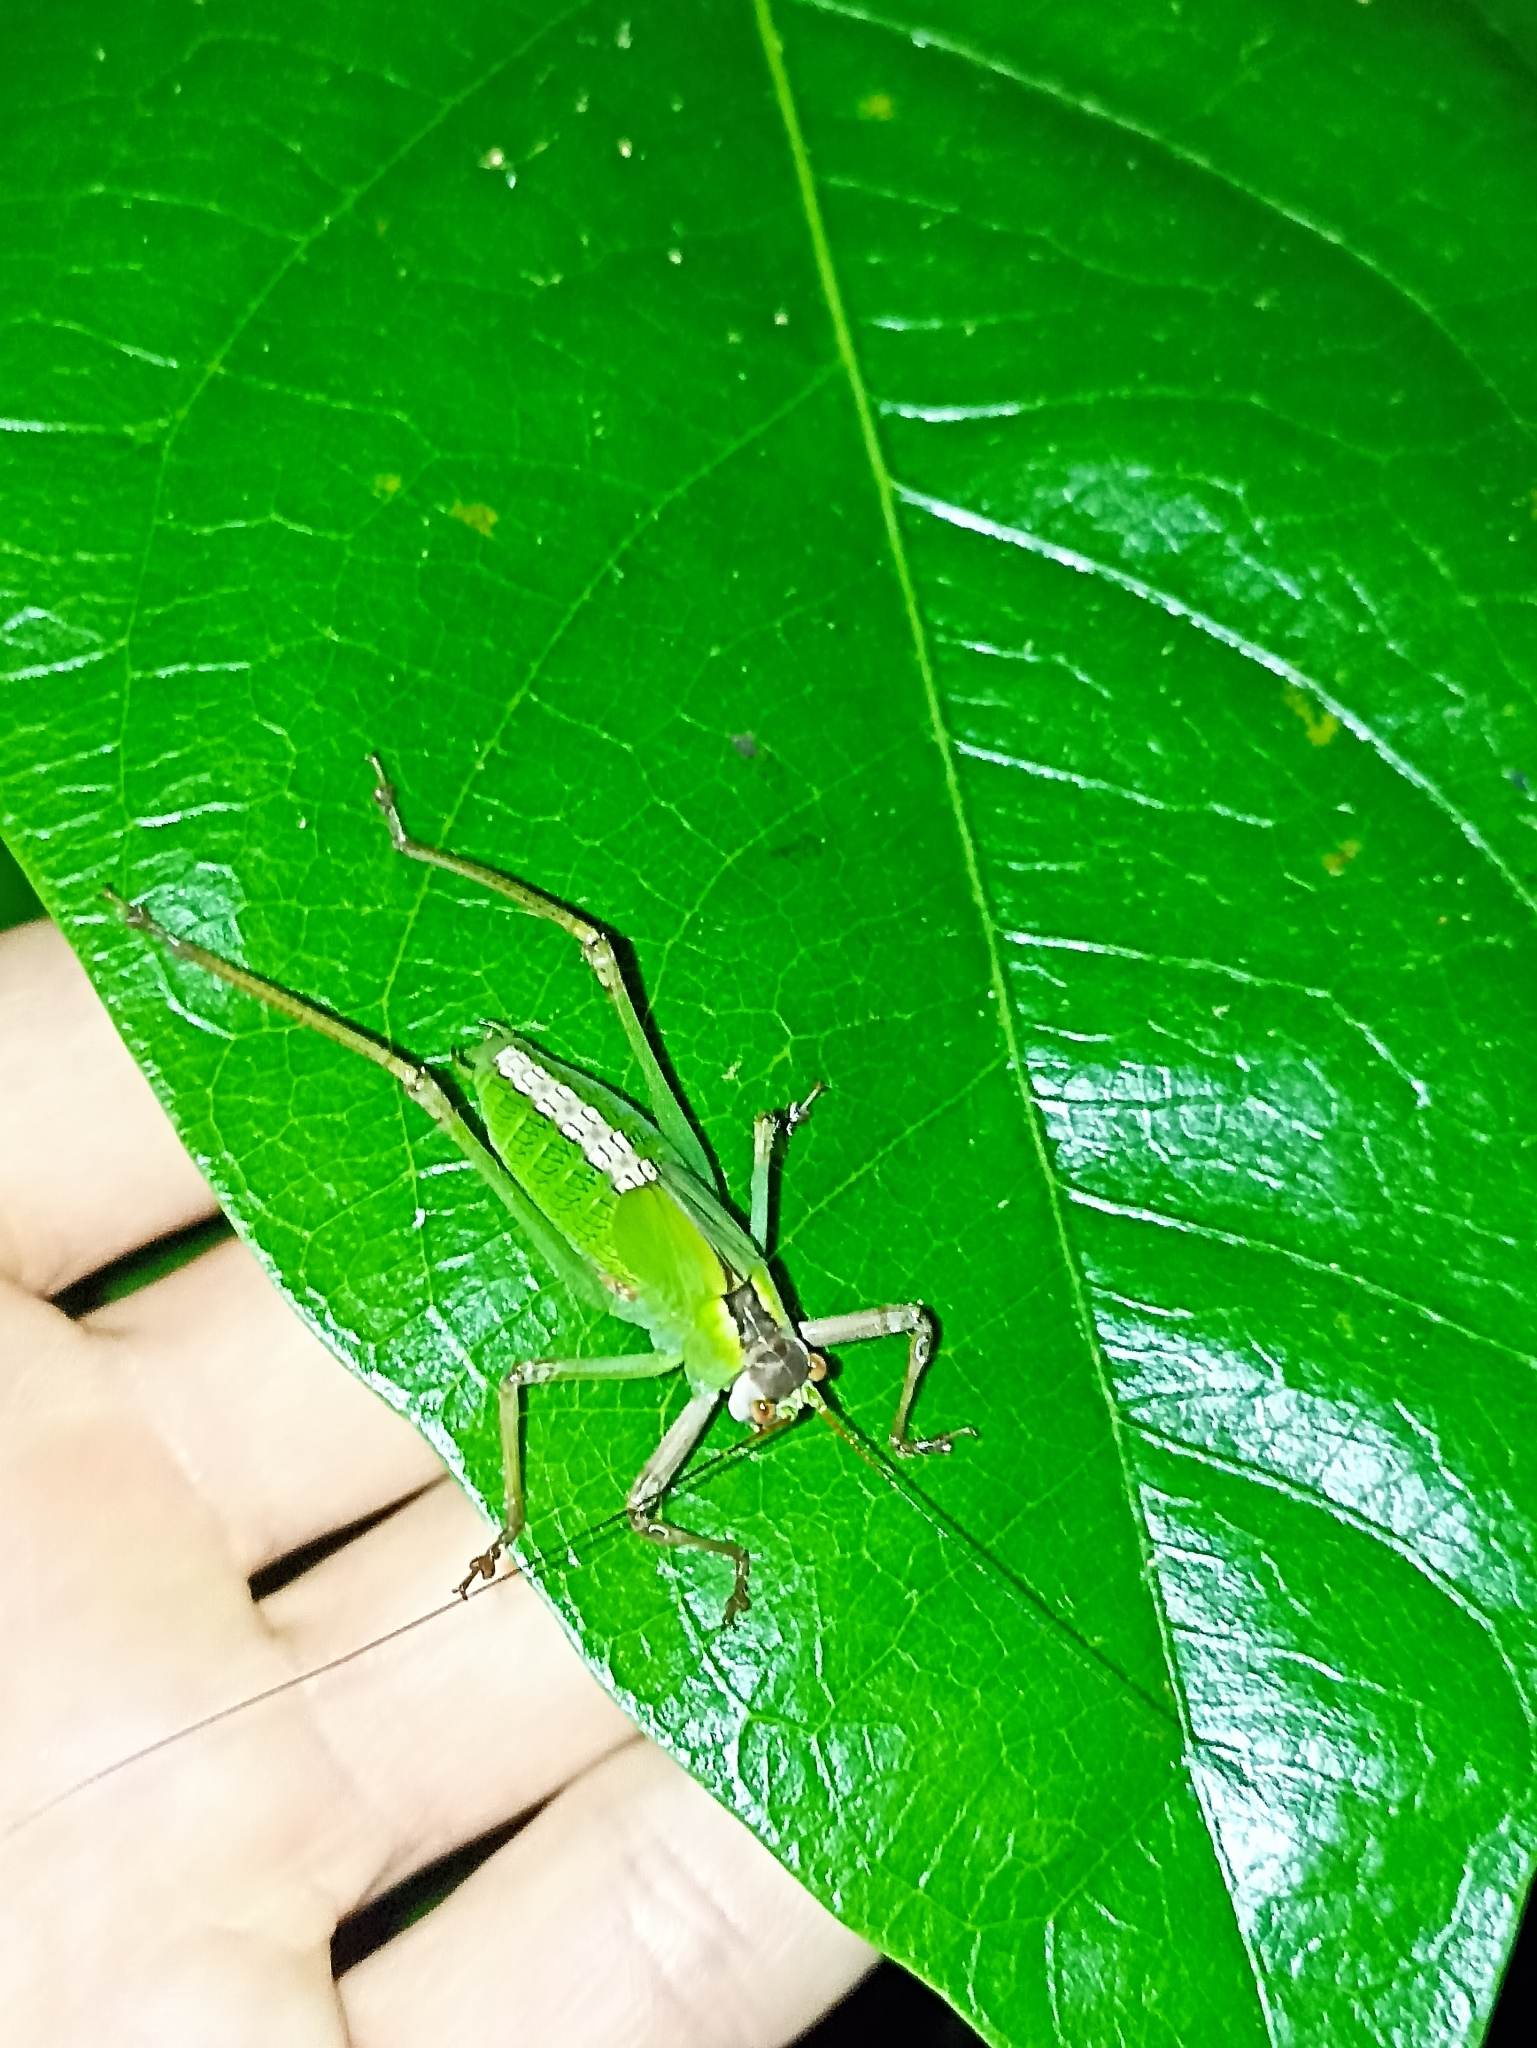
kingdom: Animalia
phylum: Arthropoda
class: Insecta
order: Orthoptera
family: Tettigoniidae
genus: Ozphyllum
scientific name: Ozphyllum naskreckii
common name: Neskrecki's bush katydid
